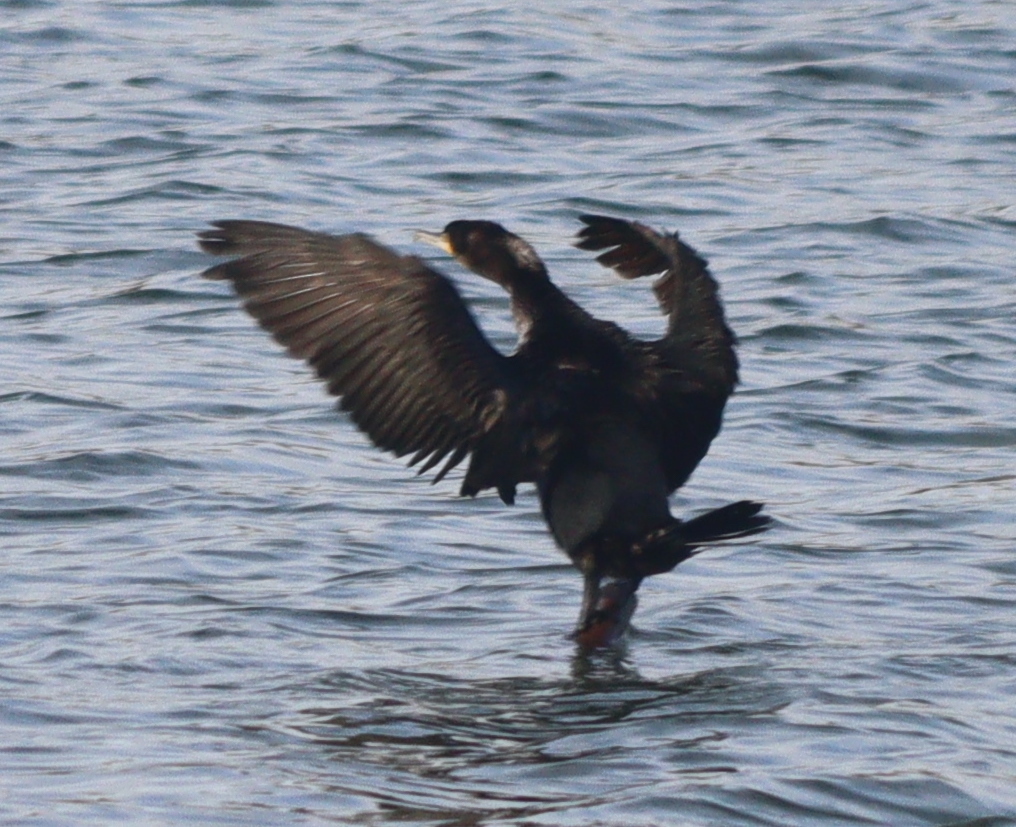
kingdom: Animalia
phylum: Chordata
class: Aves
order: Suliformes
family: Phalacrocoracidae
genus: Phalacrocorax
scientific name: Phalacrocorax carbo
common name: Great cormorant
